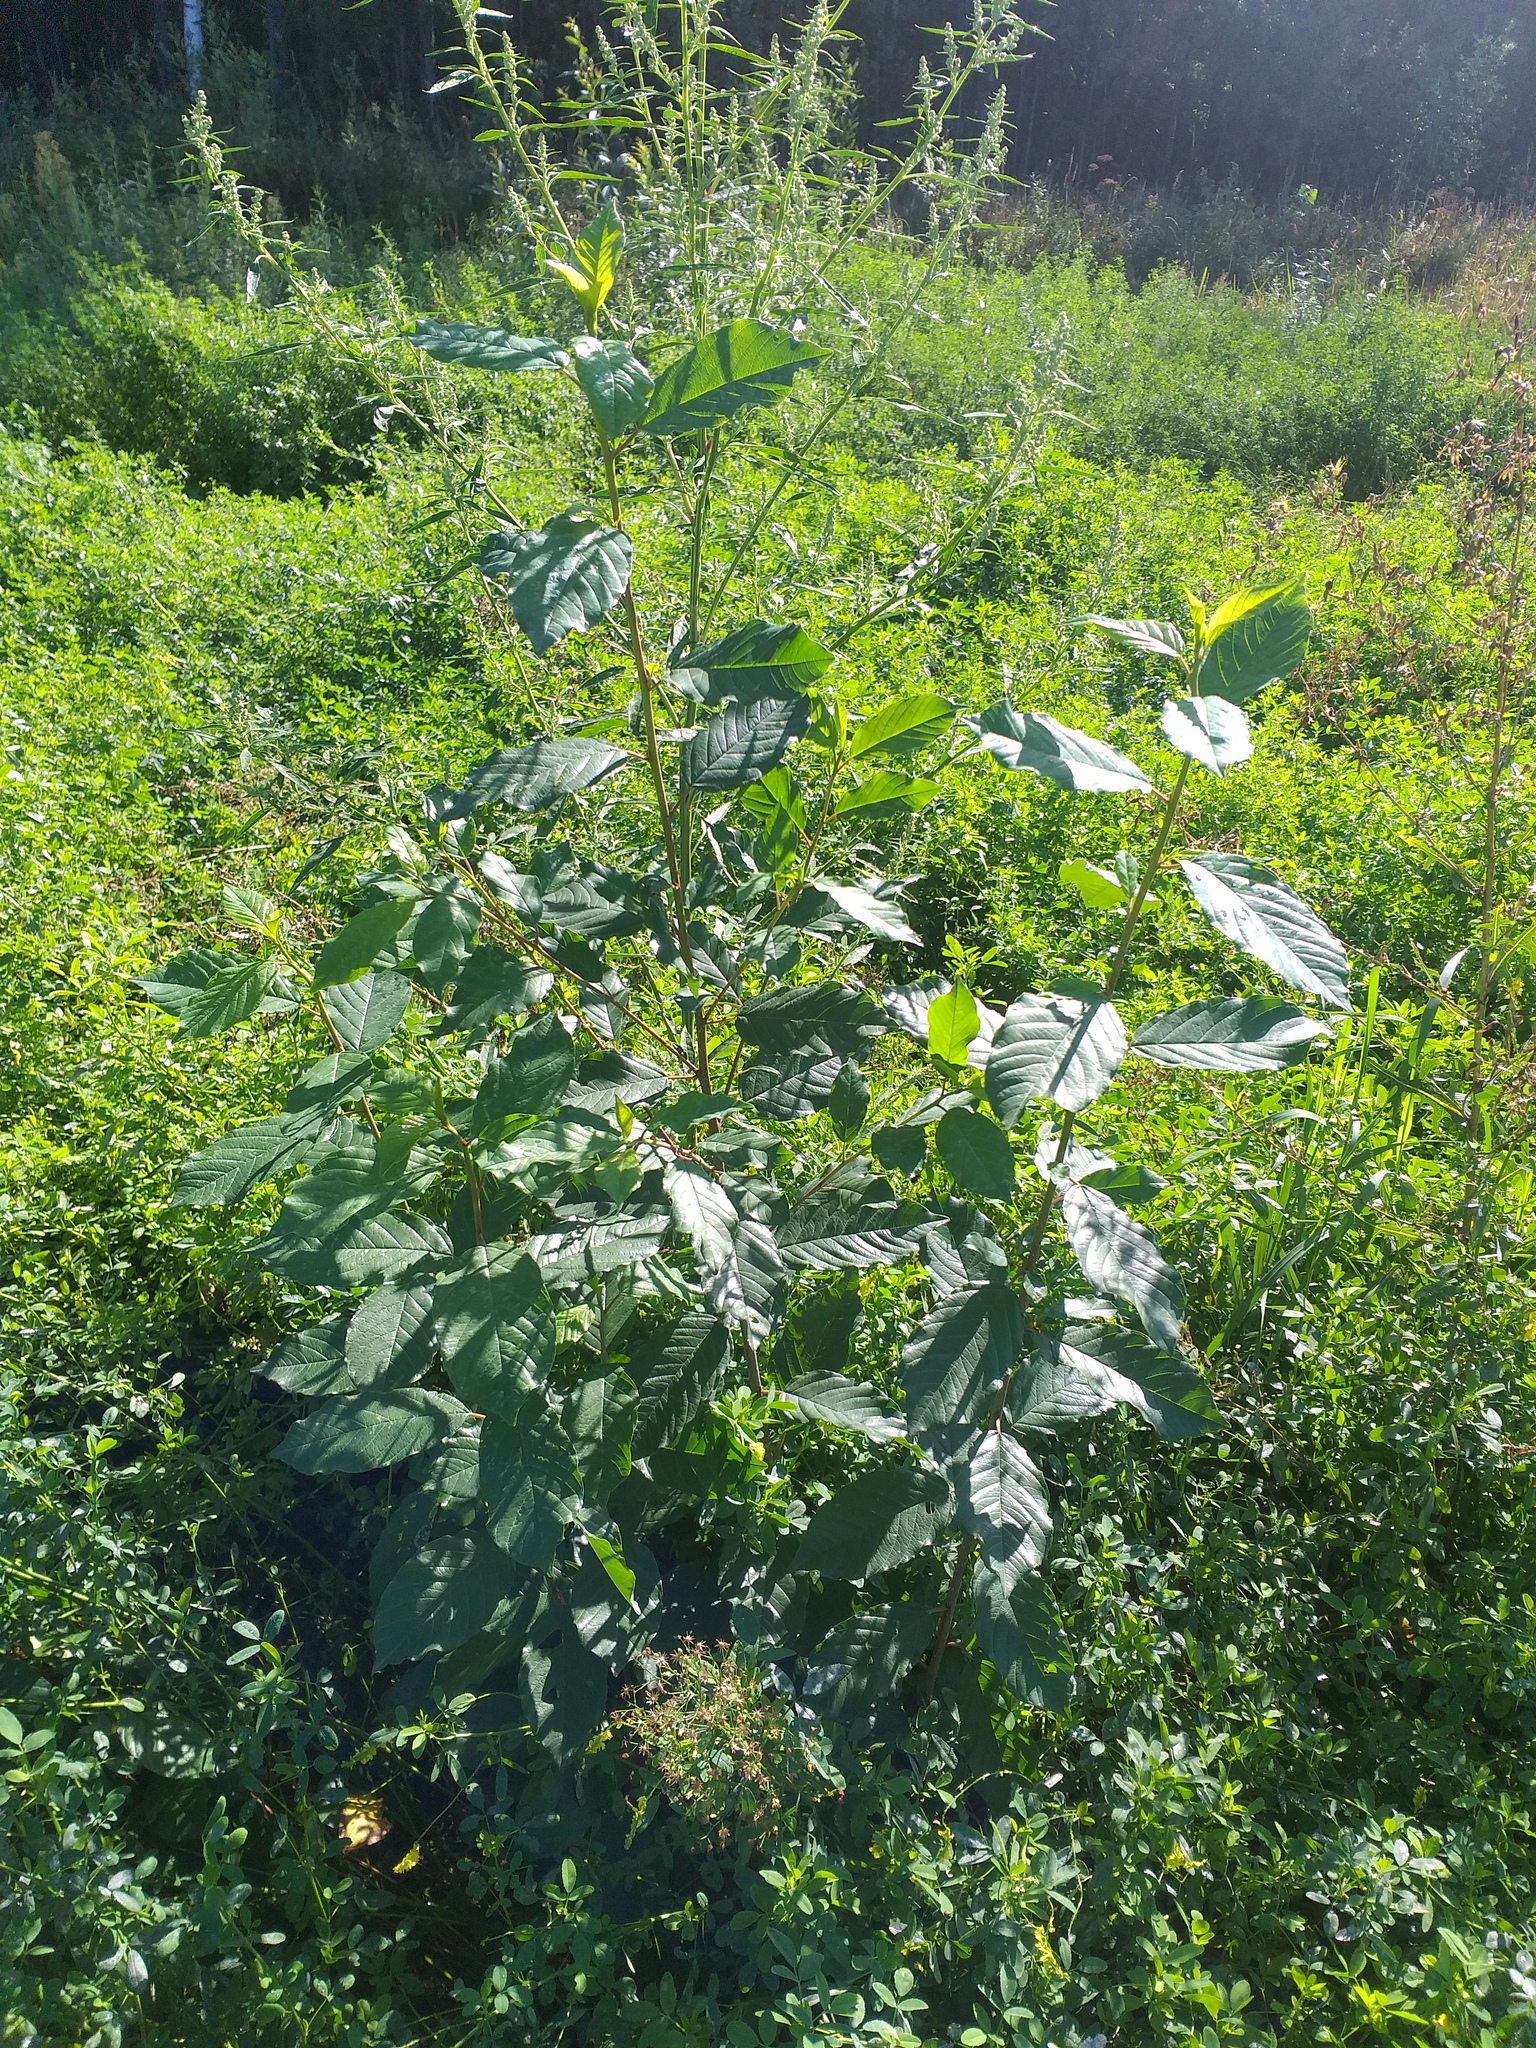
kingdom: Plantae
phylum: Tracheophyta
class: Magnoliopsida
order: Rosales
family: Rhamnaceae
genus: Frangula
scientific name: Frangula alnus
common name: Alder buckthorn
